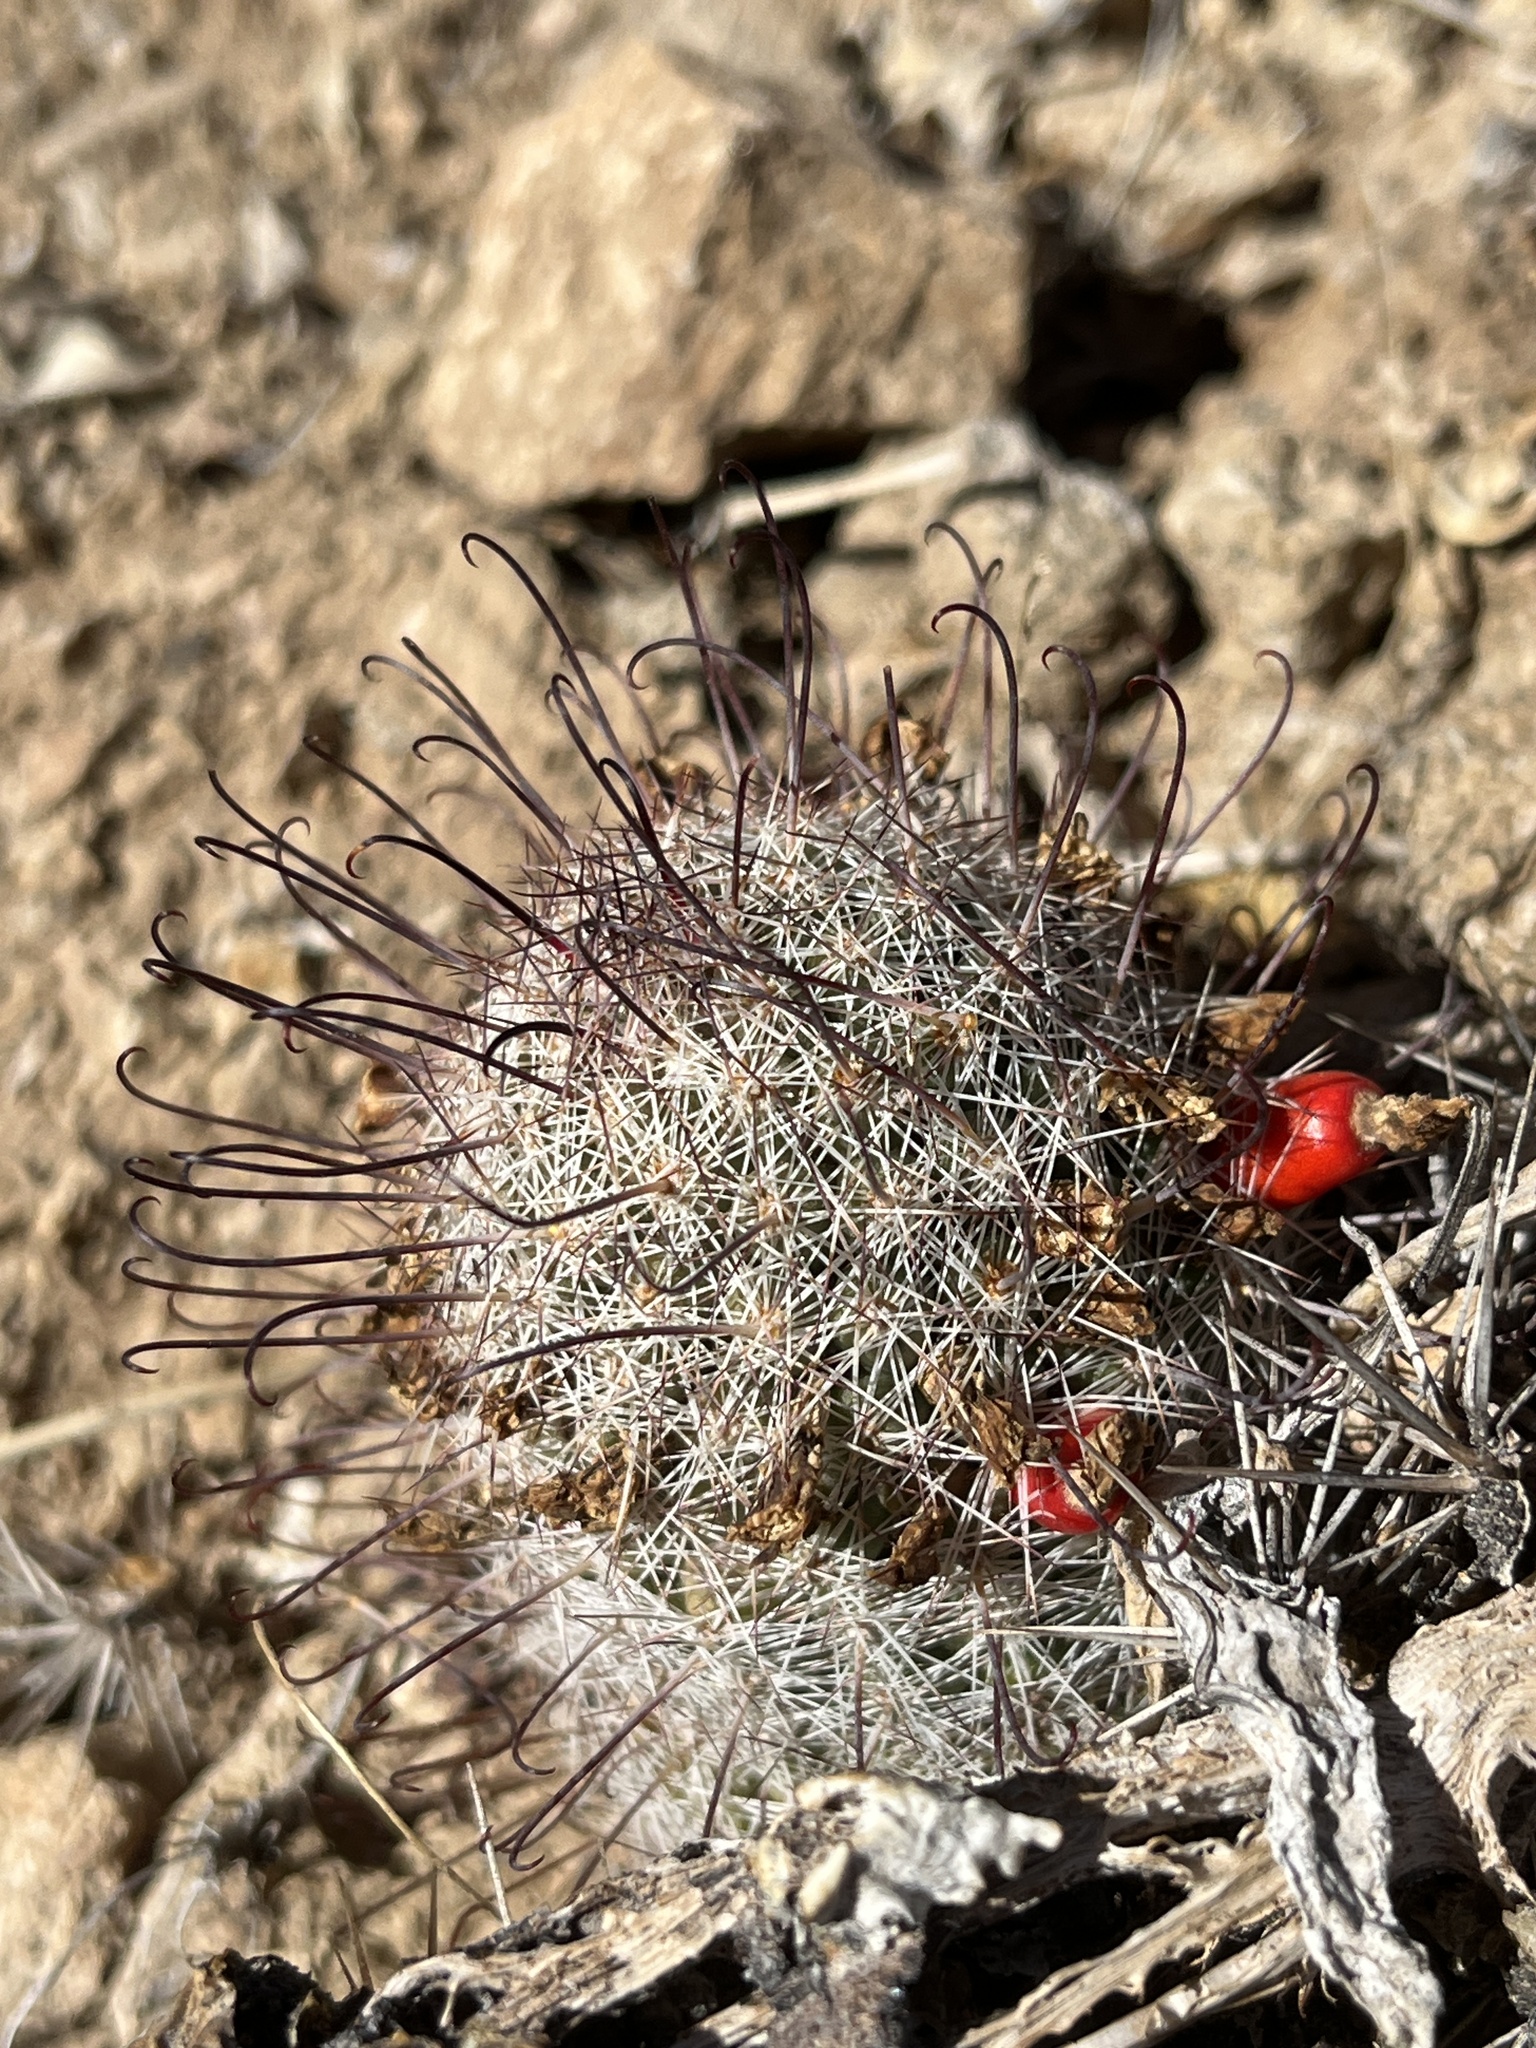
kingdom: Plantae
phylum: Tracheophyta
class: Magnoliopsida
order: Caryophyllales
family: Cactaceae
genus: Cochemiea
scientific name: Cochemiea grahamii
